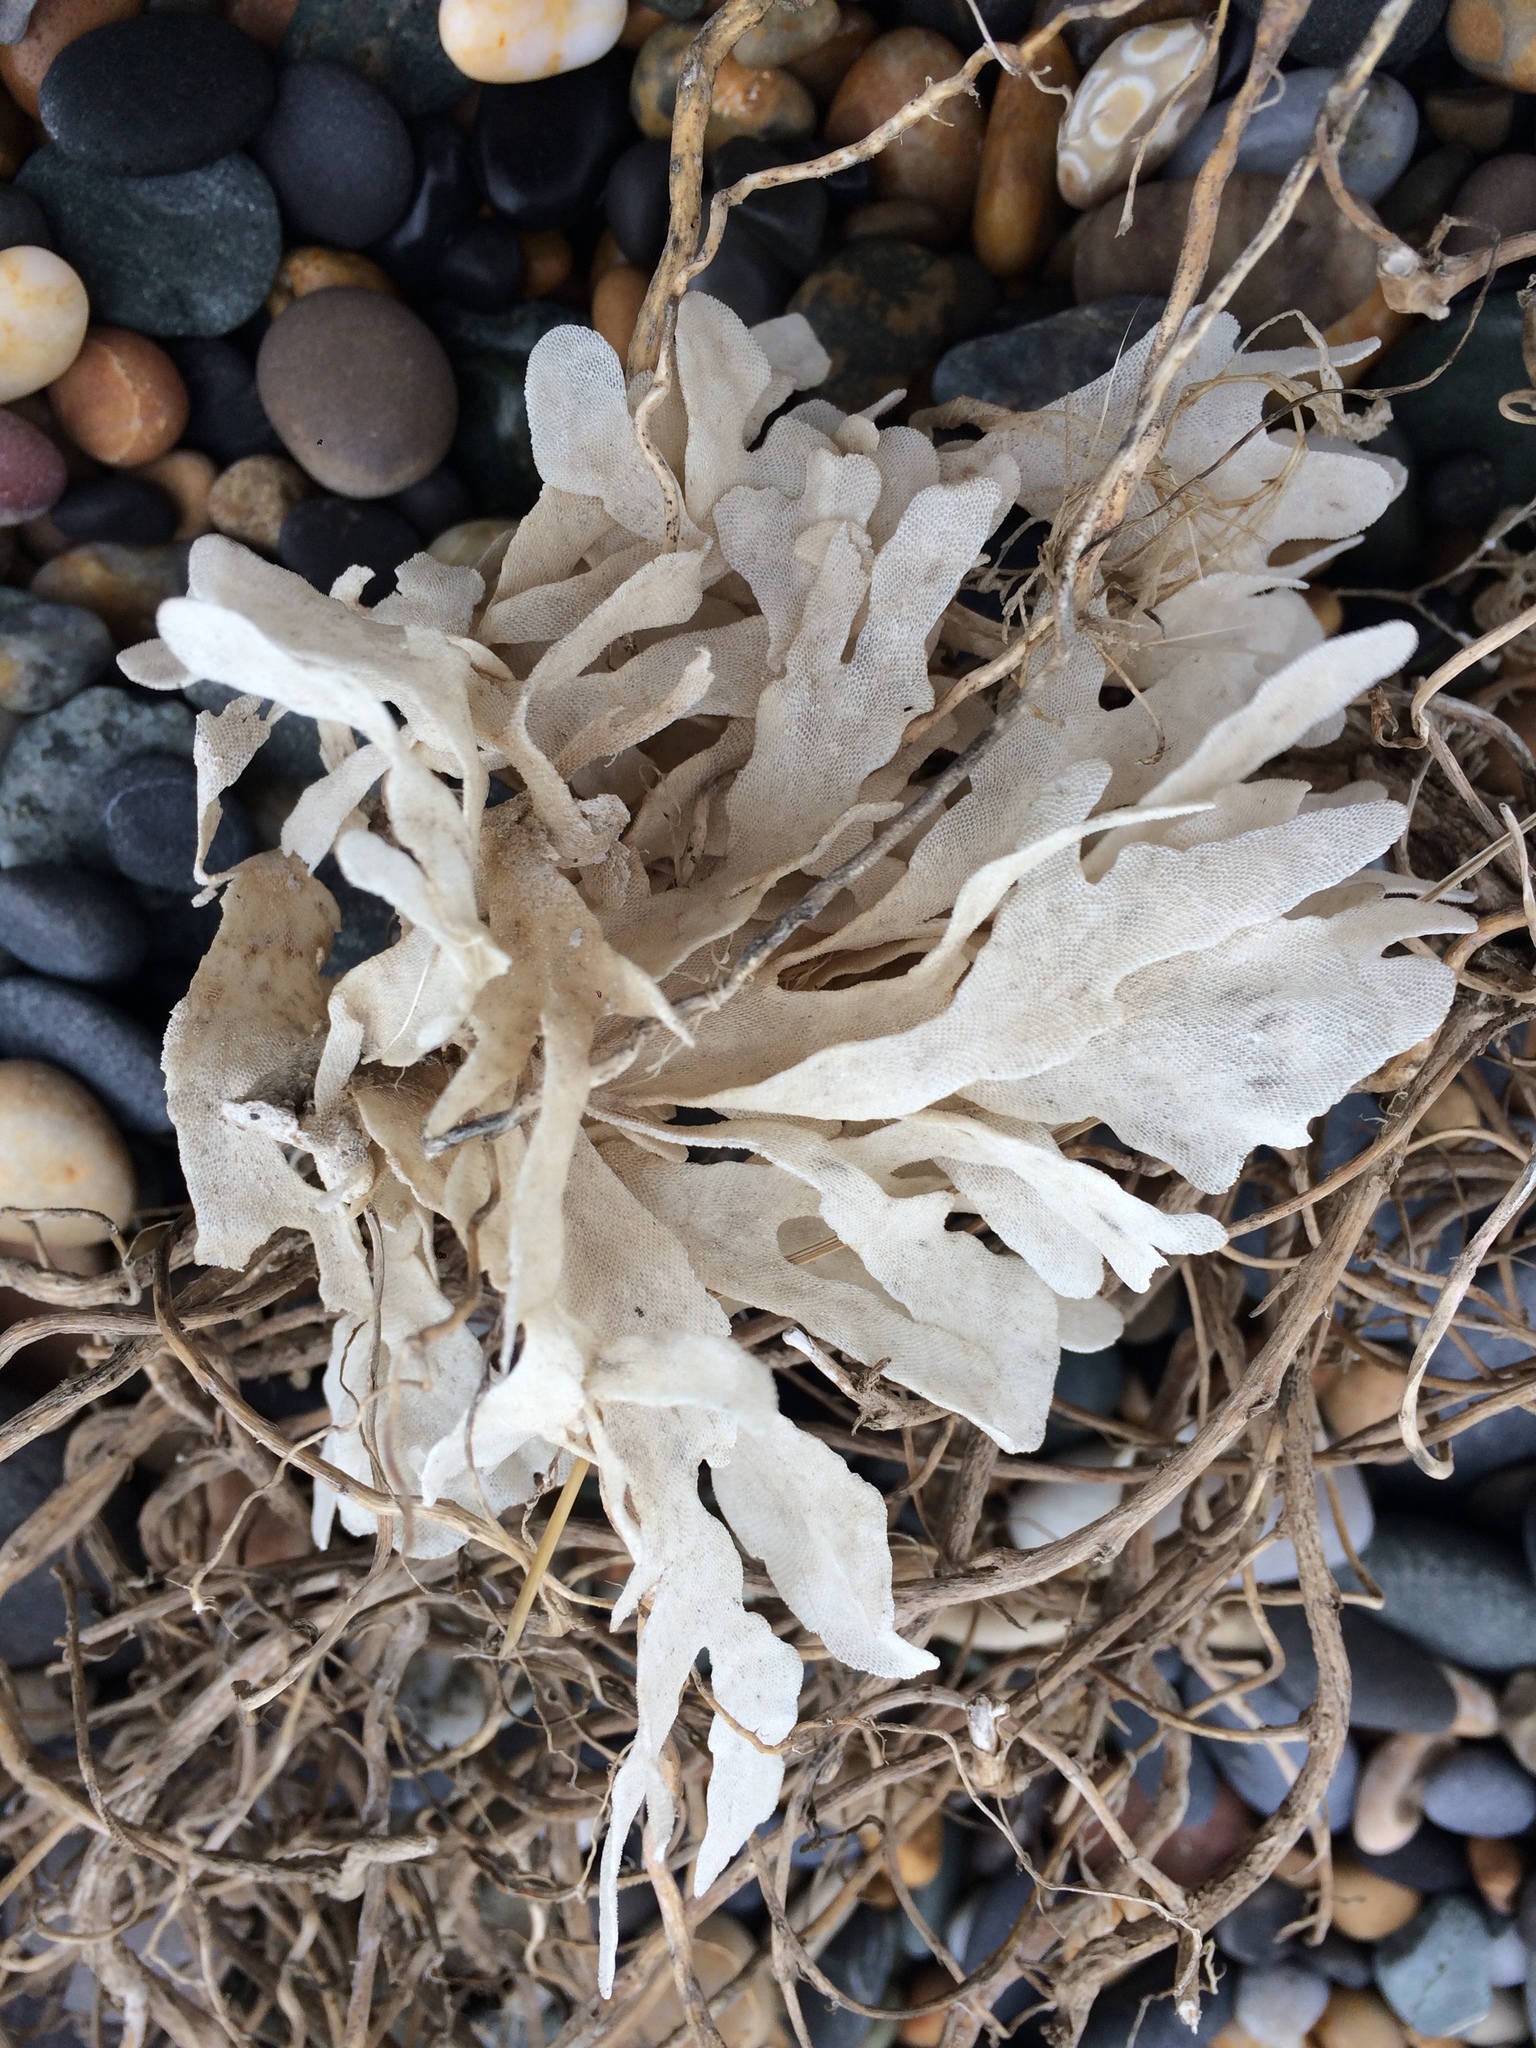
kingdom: Animalia
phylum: Bryozoa
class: Gymnolaemata
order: Cheilostomatida
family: Flustridae
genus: Flustra
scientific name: Flustra foliacea
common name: Hornwrack
